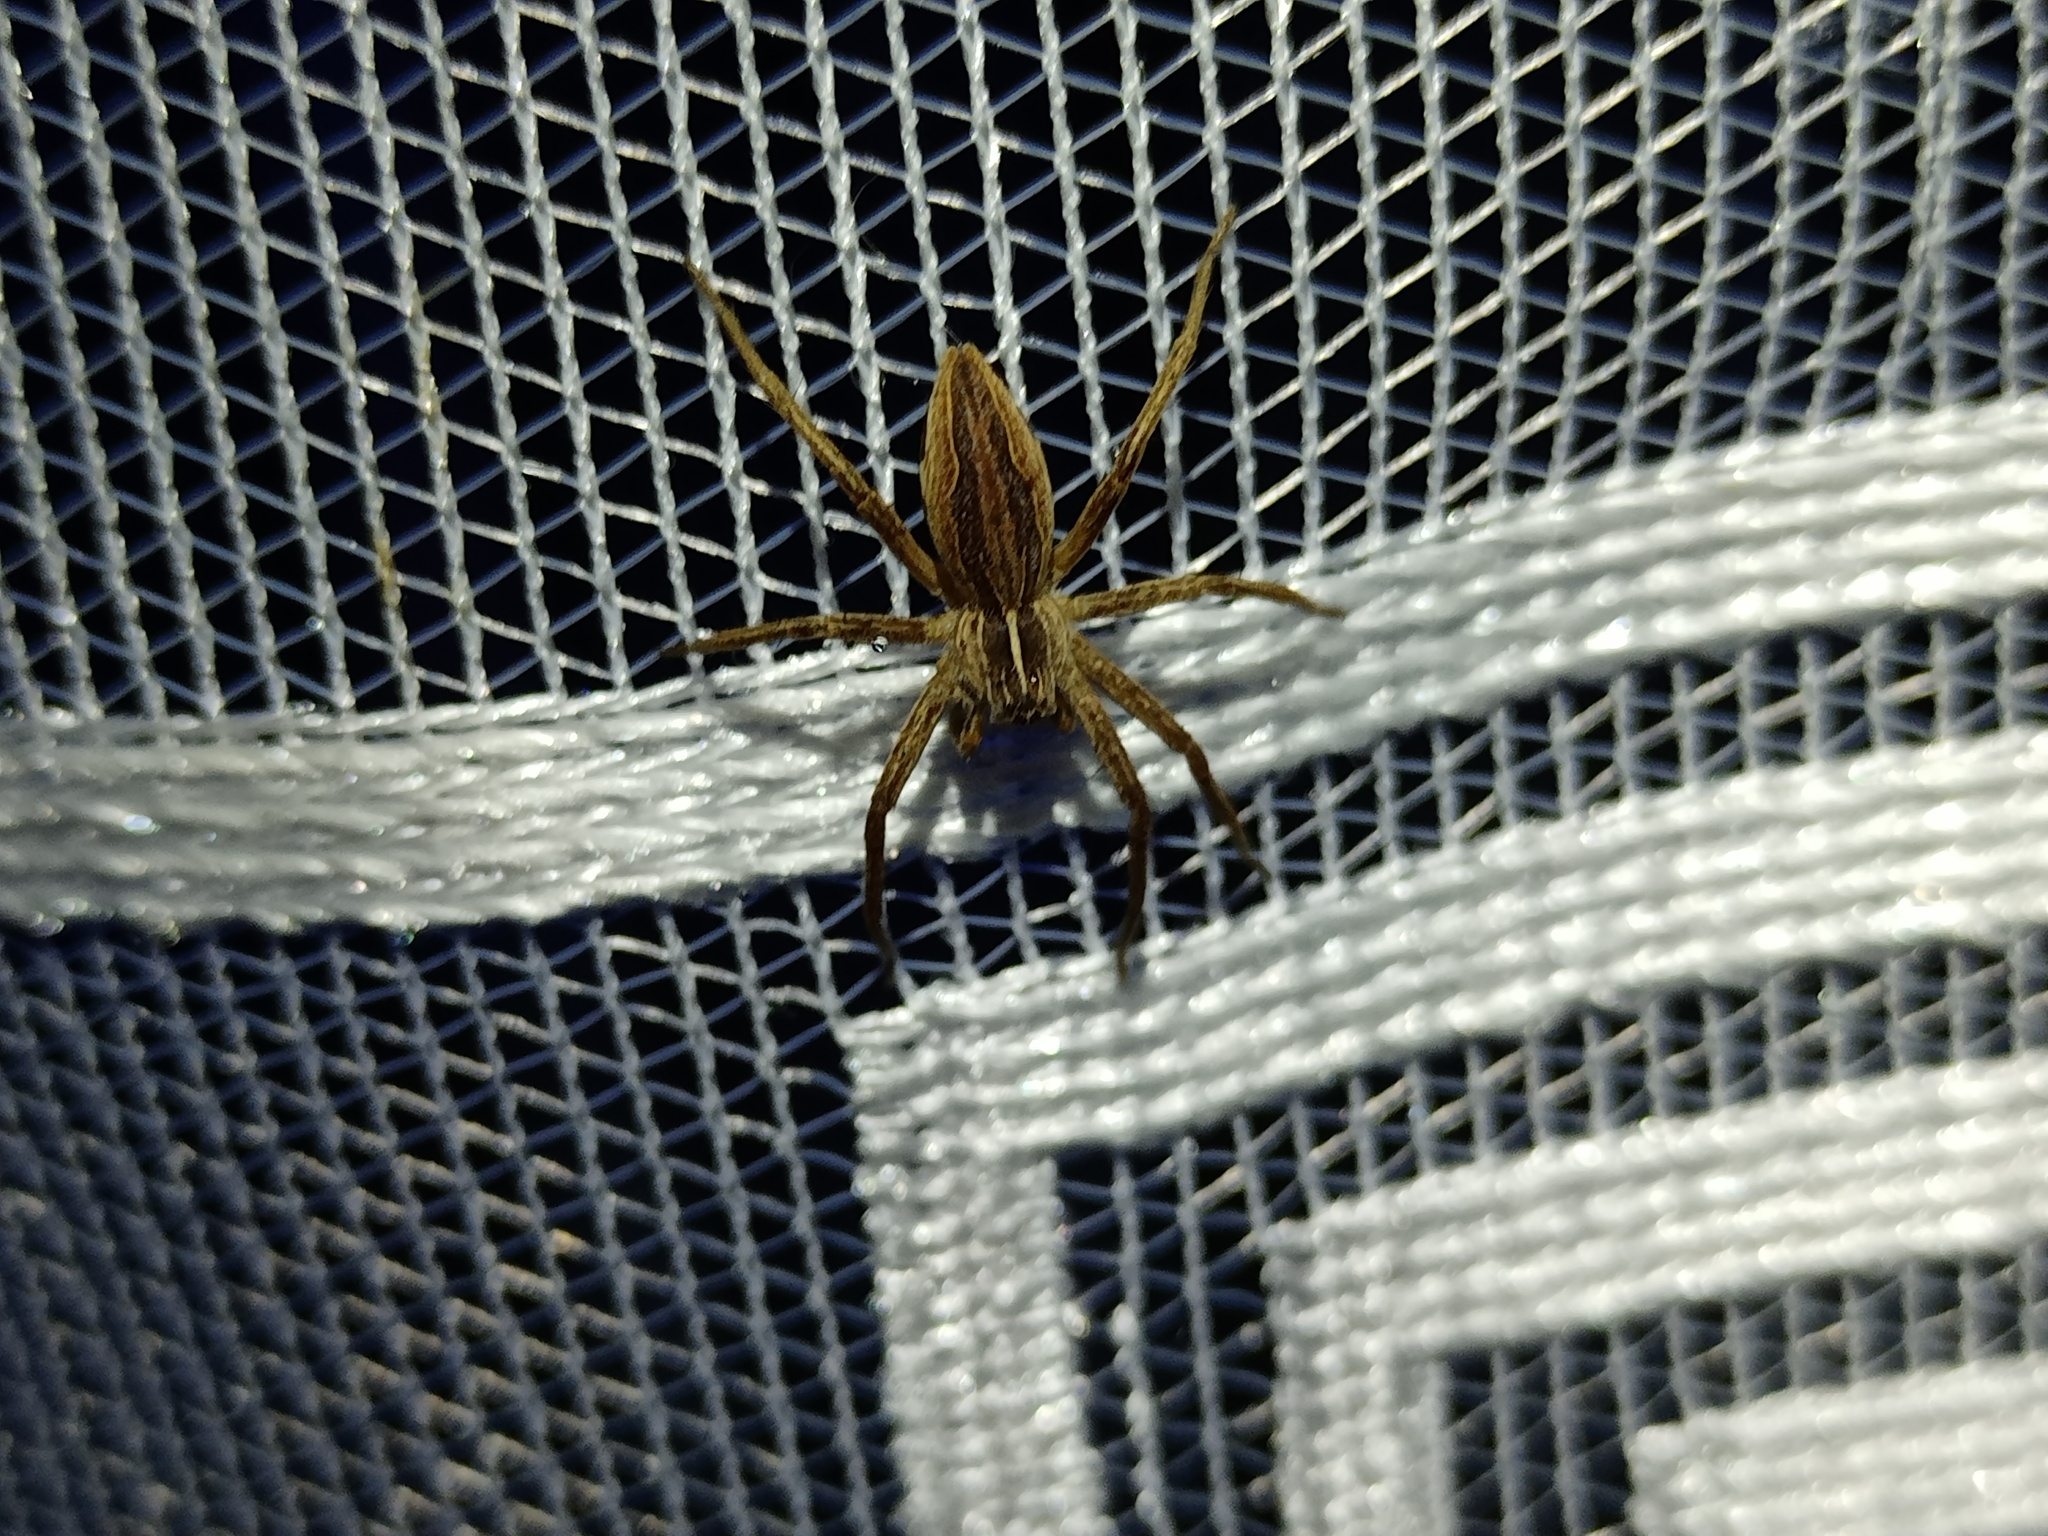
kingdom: Animalia
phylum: Arthropoda
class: Arachnida
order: Araneae
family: Pisauridae
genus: Pisaura
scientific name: Pisaura mirabilis
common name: Tent spider
